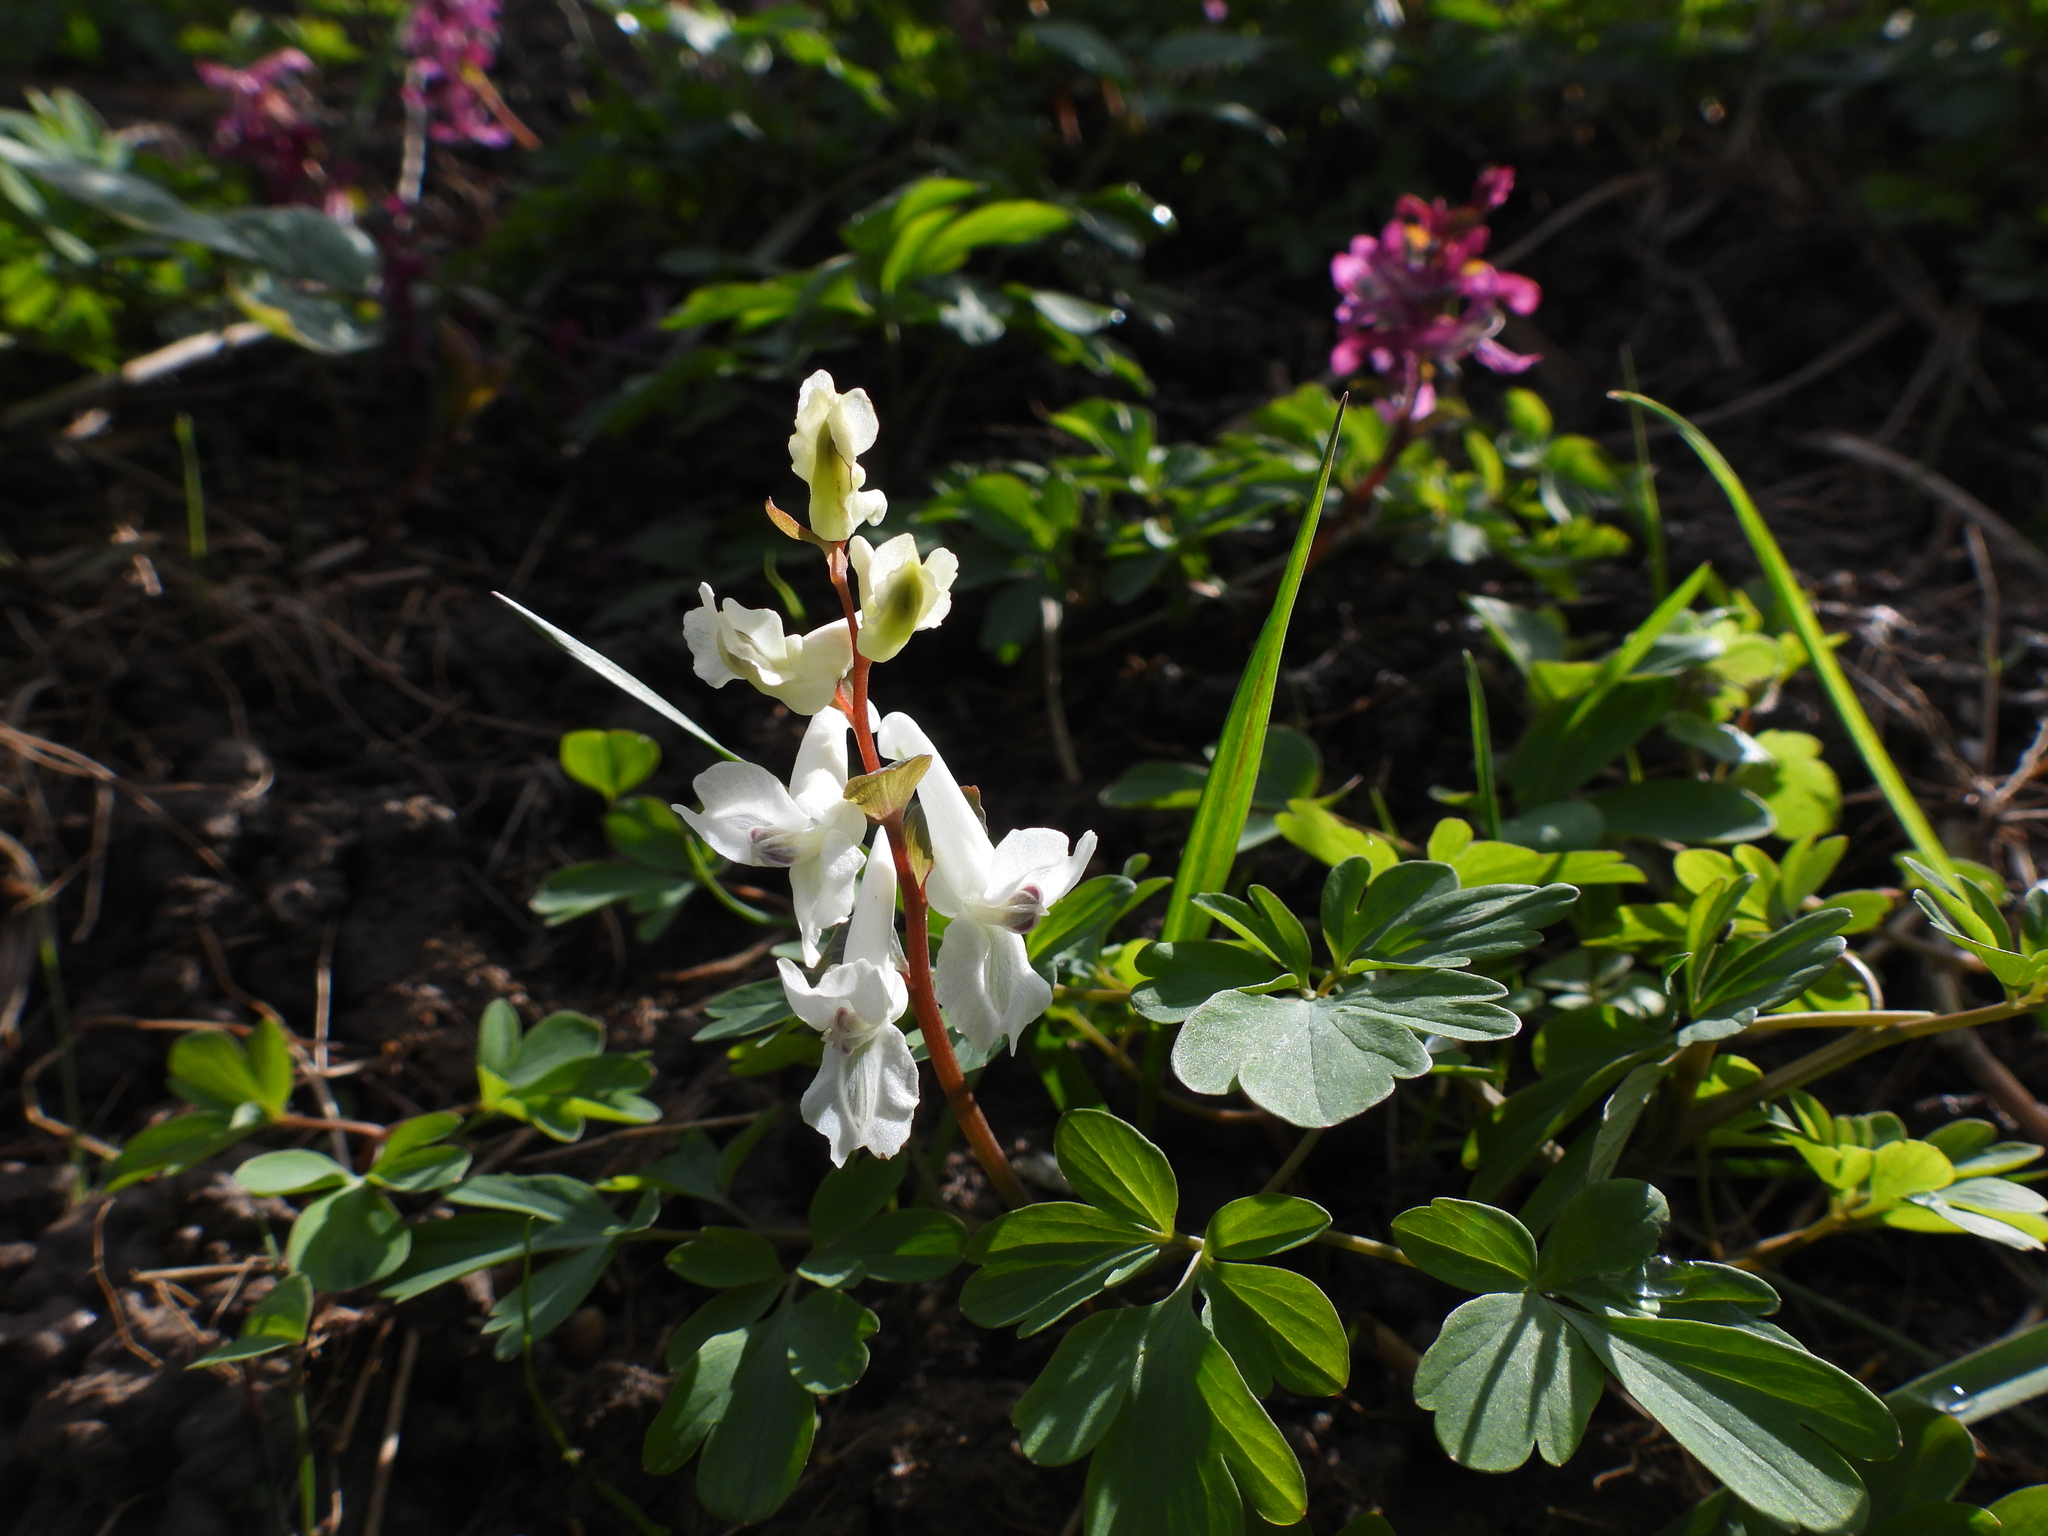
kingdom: Plantae
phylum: Tracheophyta
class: Magnoliopsida
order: Ranunculales
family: Papaveraceae
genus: Corydalis
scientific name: Corydalis cava
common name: Hollowroot
